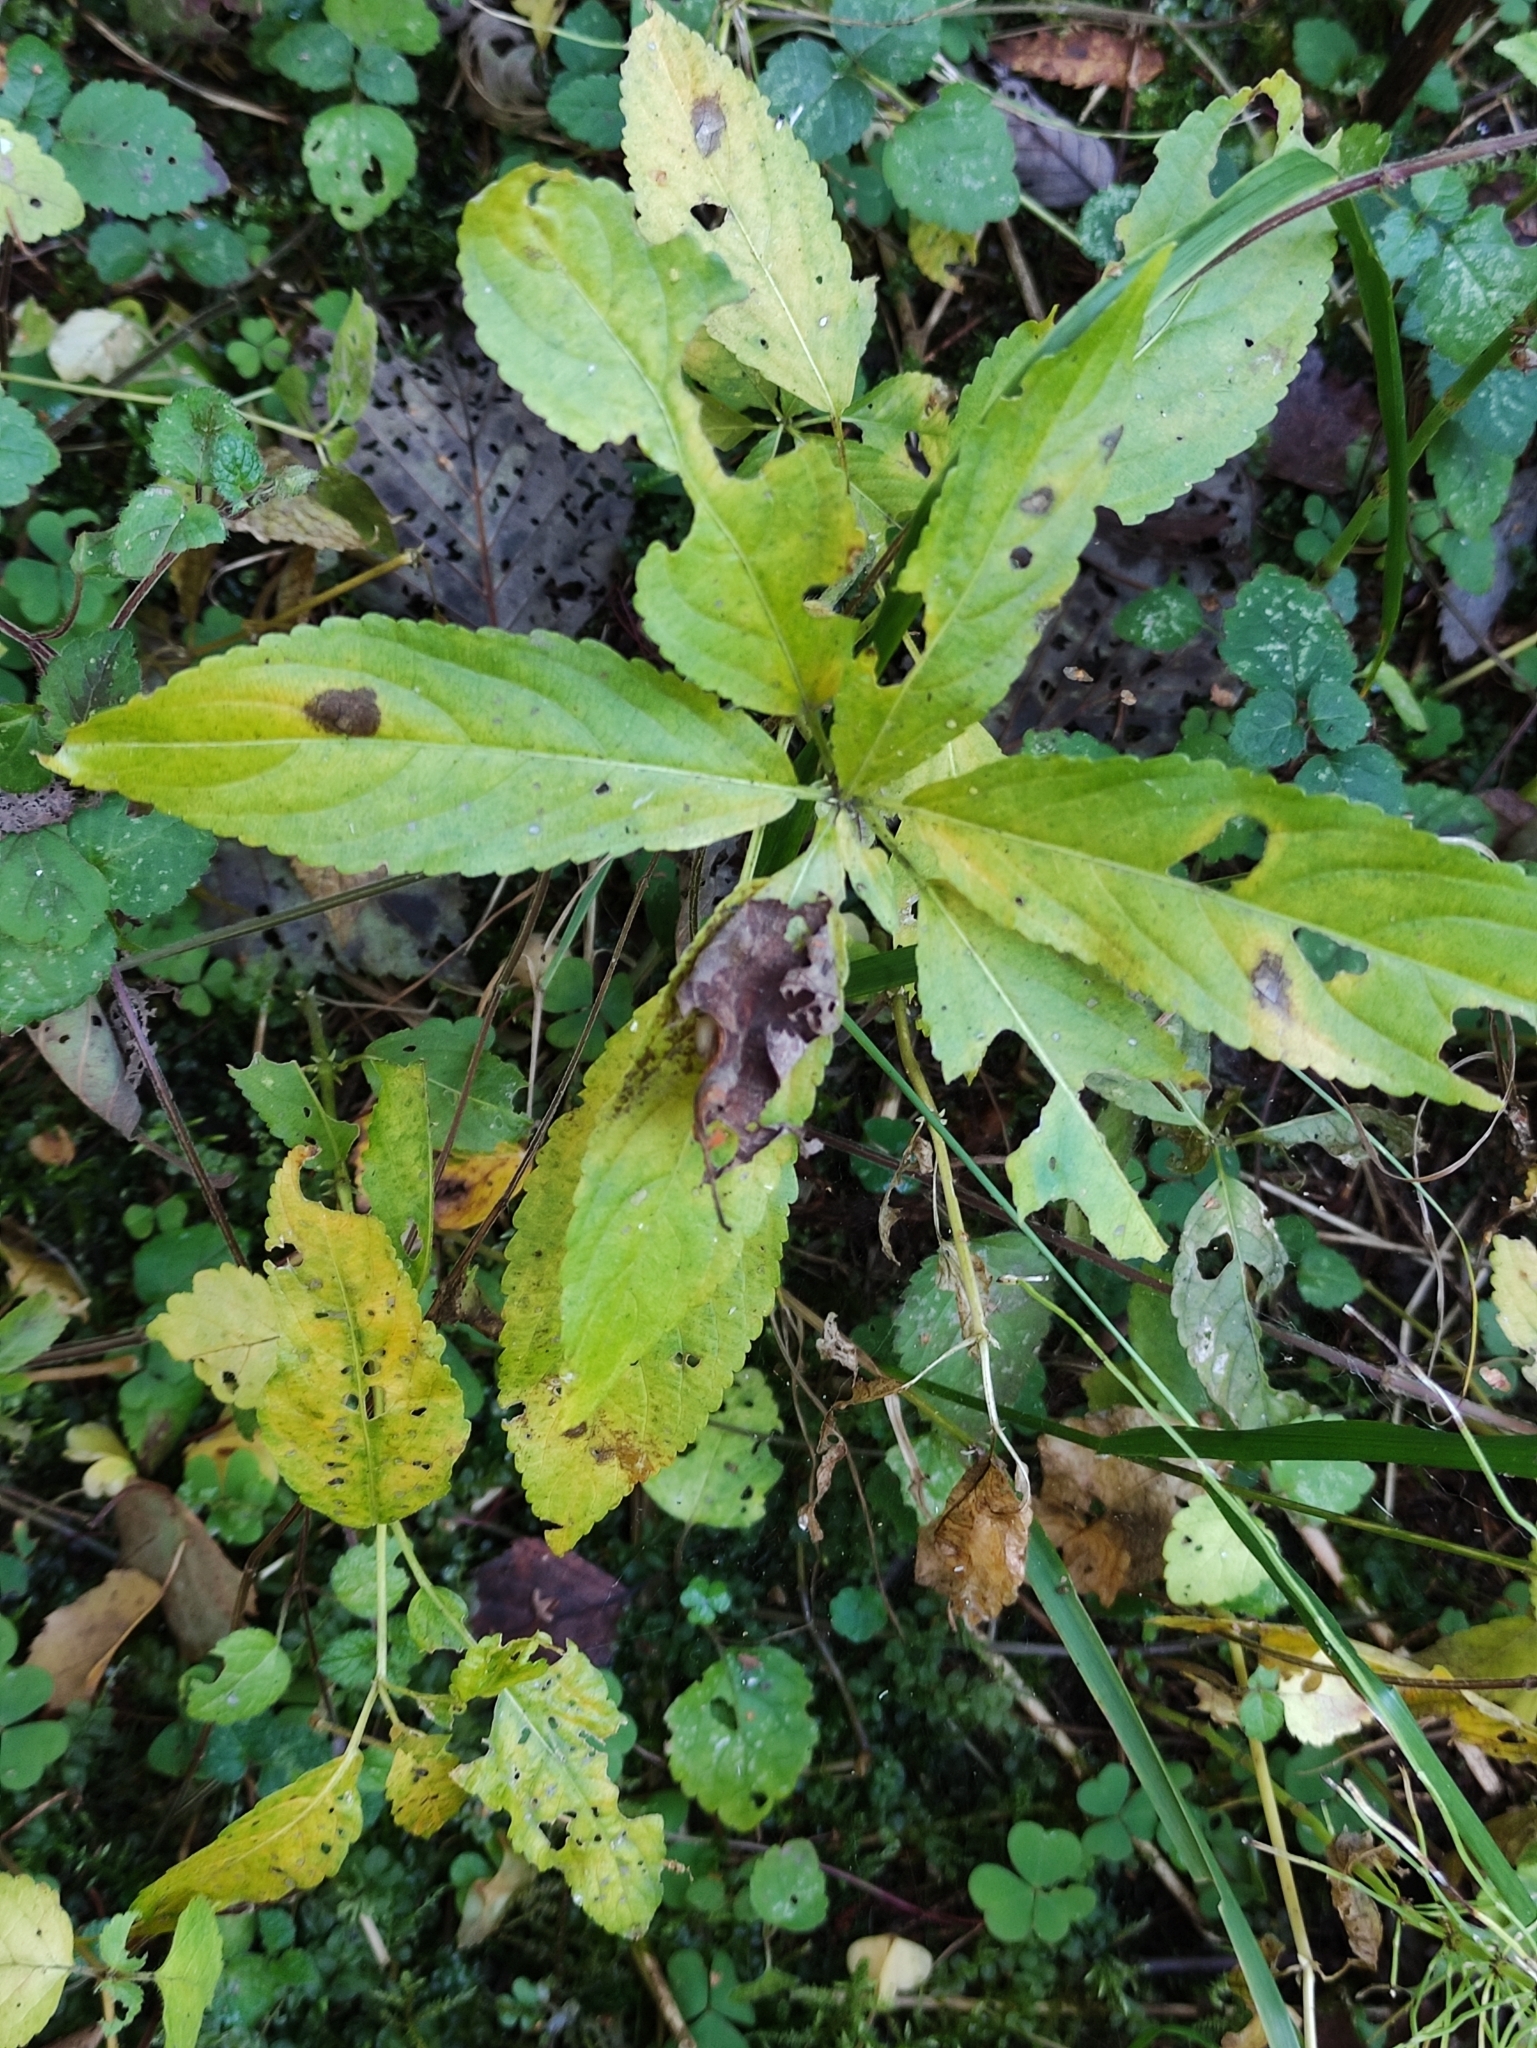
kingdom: Plantae
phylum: Tracheophyta
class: Magnoliopsida
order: Malpighiales
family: Euphorbiaceae
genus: Mercurialis
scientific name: Mercurialis perennis
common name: Dog mercury
